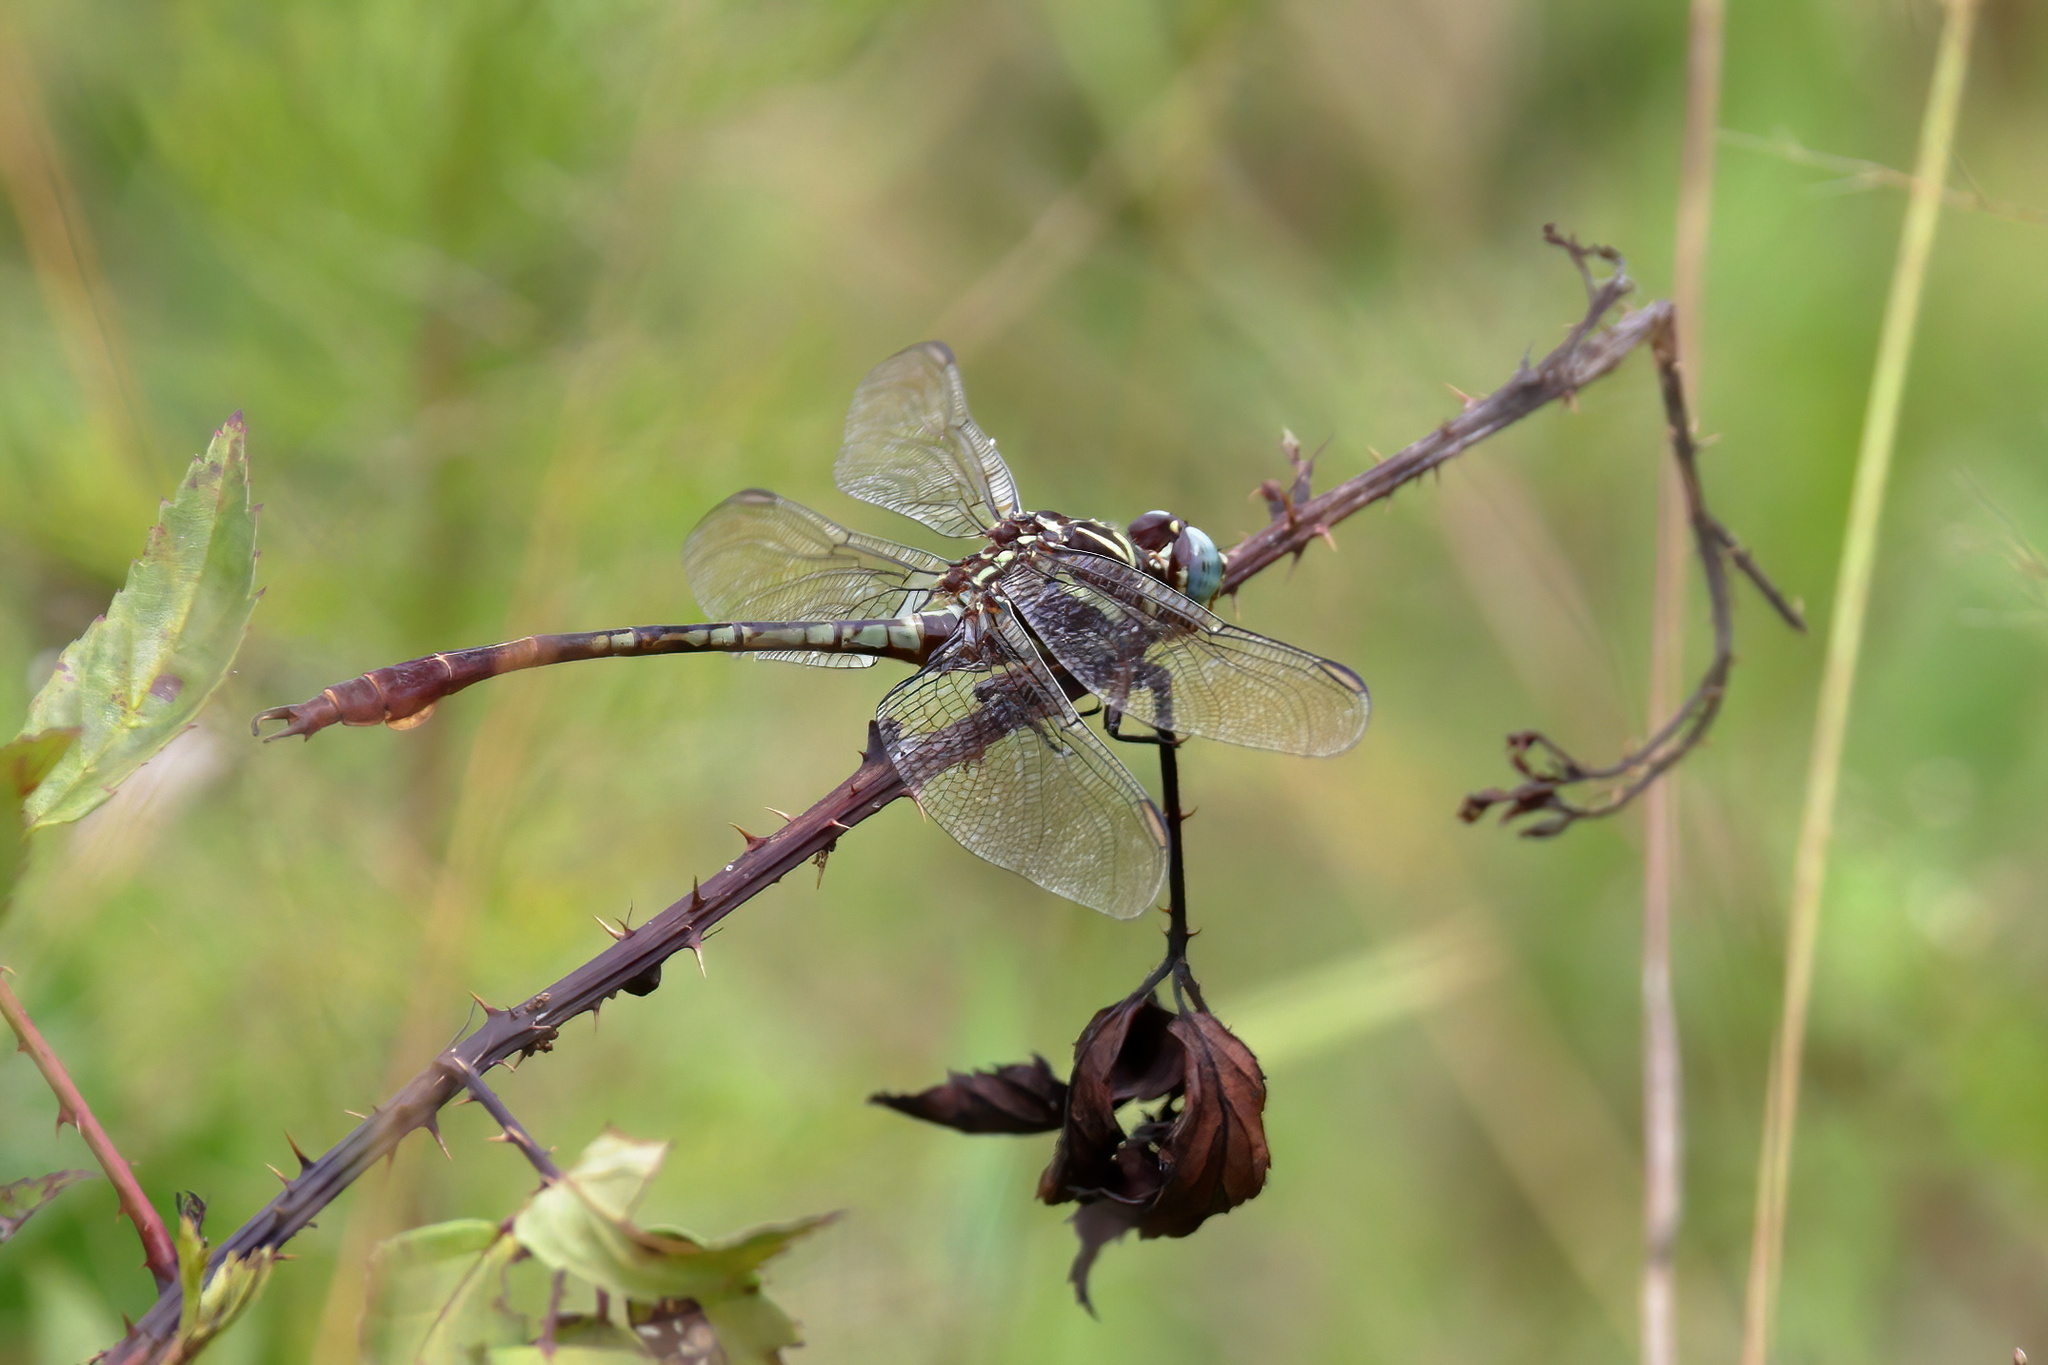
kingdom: Animalia
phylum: Arthropoda
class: Insecta
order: Odonata
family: Gomphidae
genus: Aphylla
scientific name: Aphylla williamsoni
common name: Two-striped forceptail
